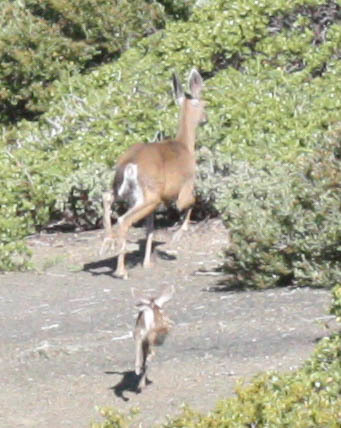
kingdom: Animalia
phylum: Chordata
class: Mammalia
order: Artiodactyla
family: Cervidae
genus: Odocoileus
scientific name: Odocoileus hemionus
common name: Mule deer
